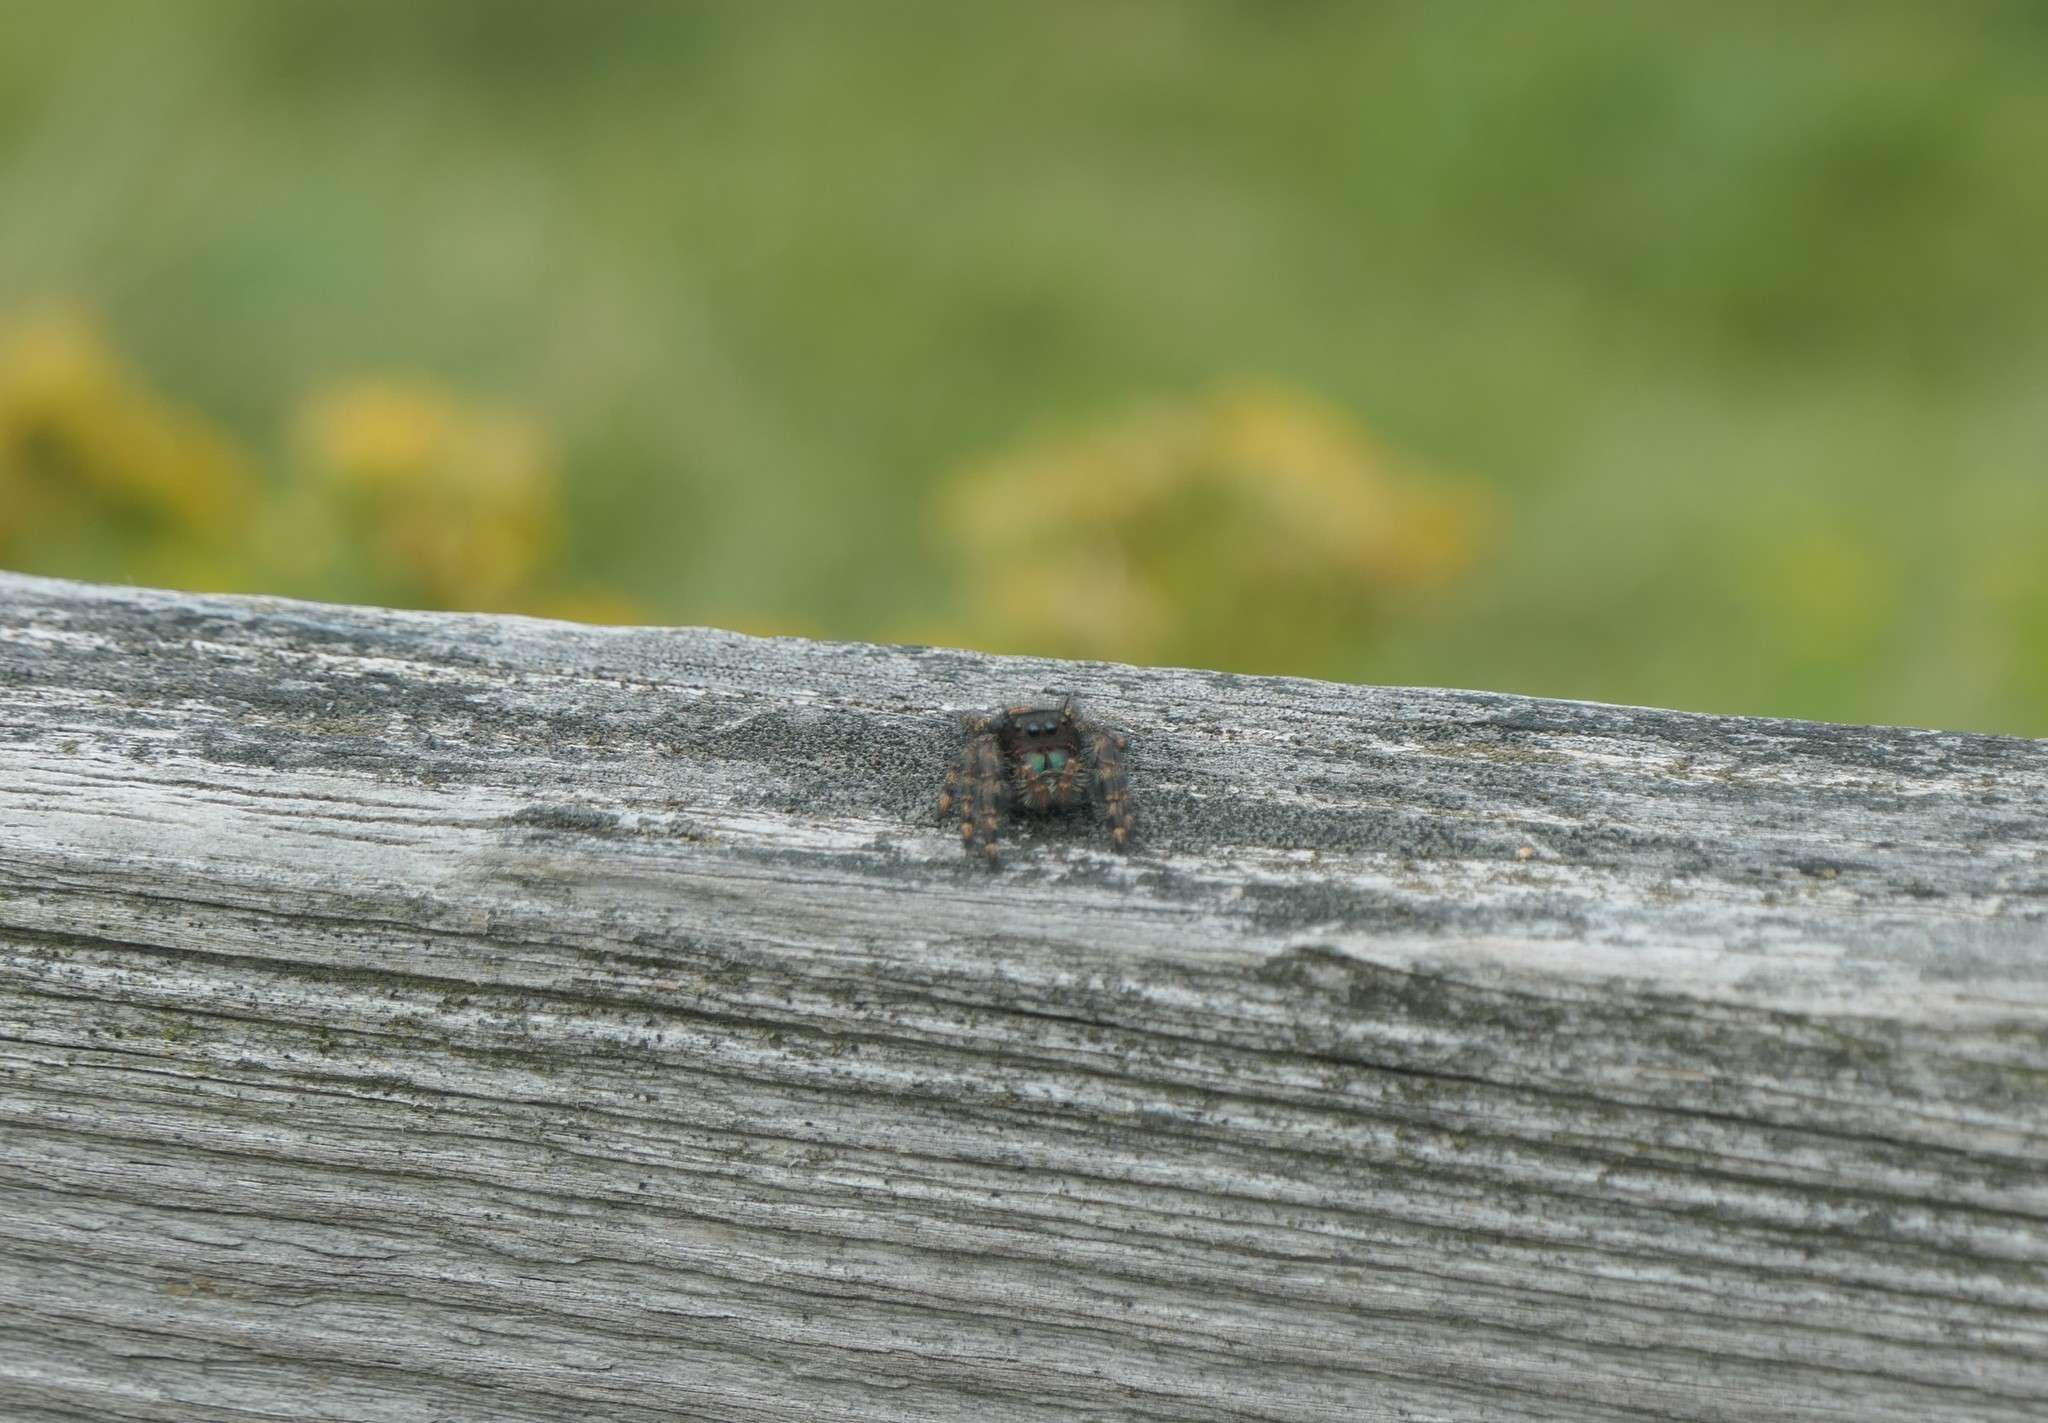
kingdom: Animalia
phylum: Arthropoda
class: Arachnida
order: Araneae
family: Salticidae
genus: Phidippus
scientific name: Phidippus audax
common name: Bold jumper
